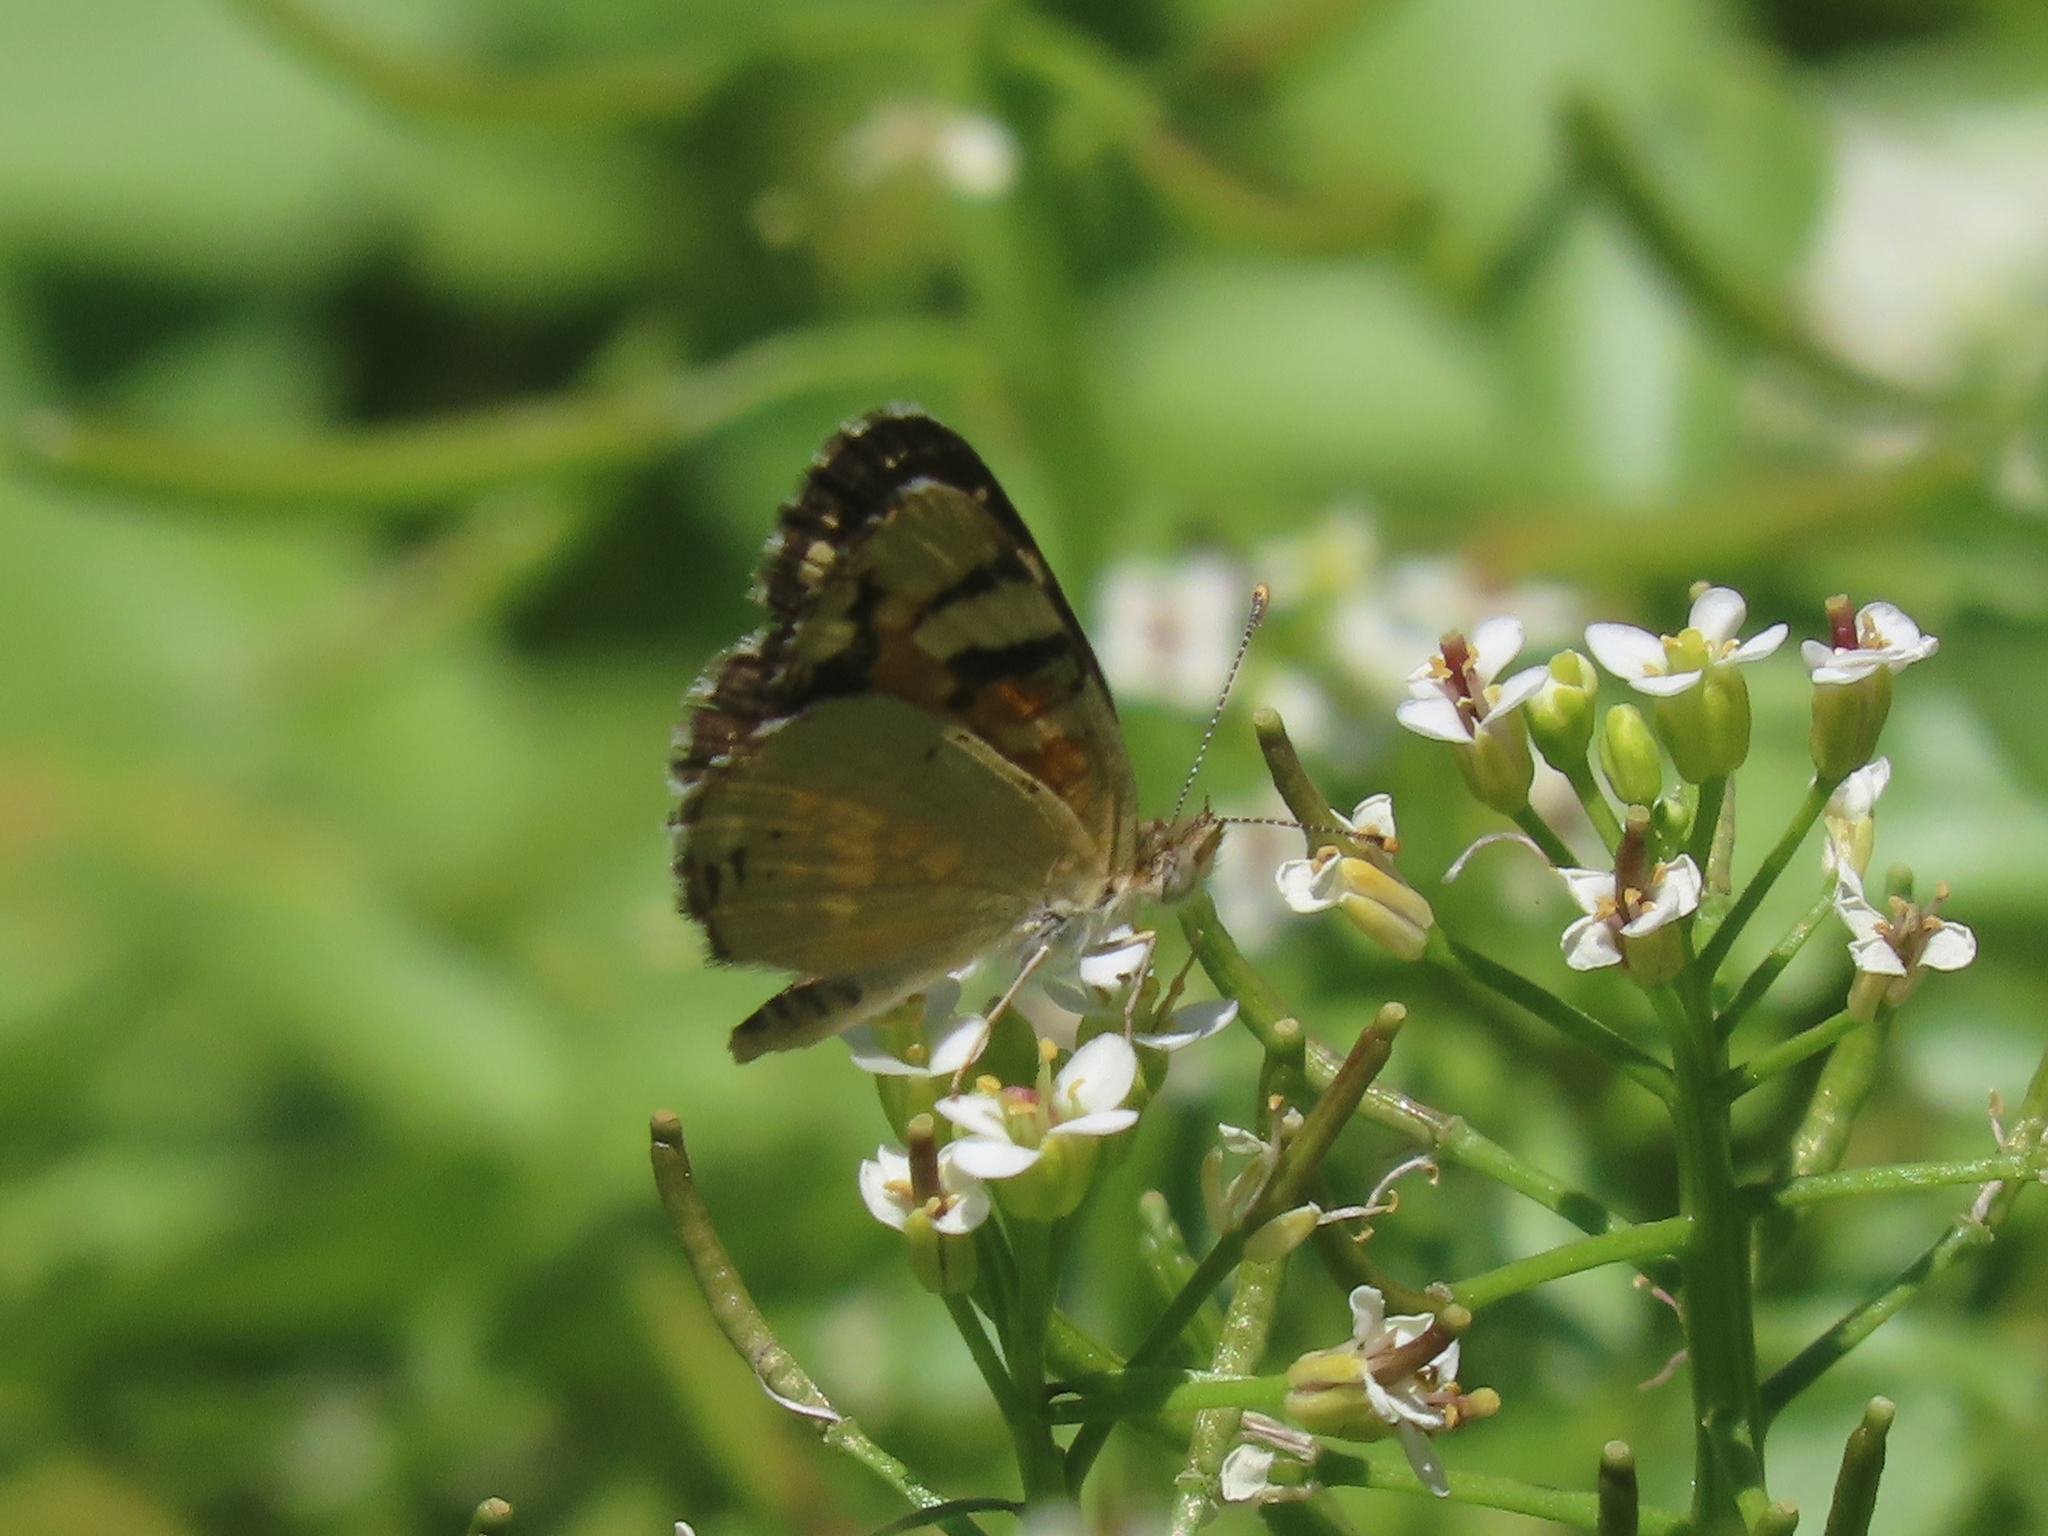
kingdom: Animalia
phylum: Arthropoda
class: Insecta
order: Lepidoptera
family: Nymphalidae
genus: Phyciodes
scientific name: Phyciodes picta
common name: Painted crescent
